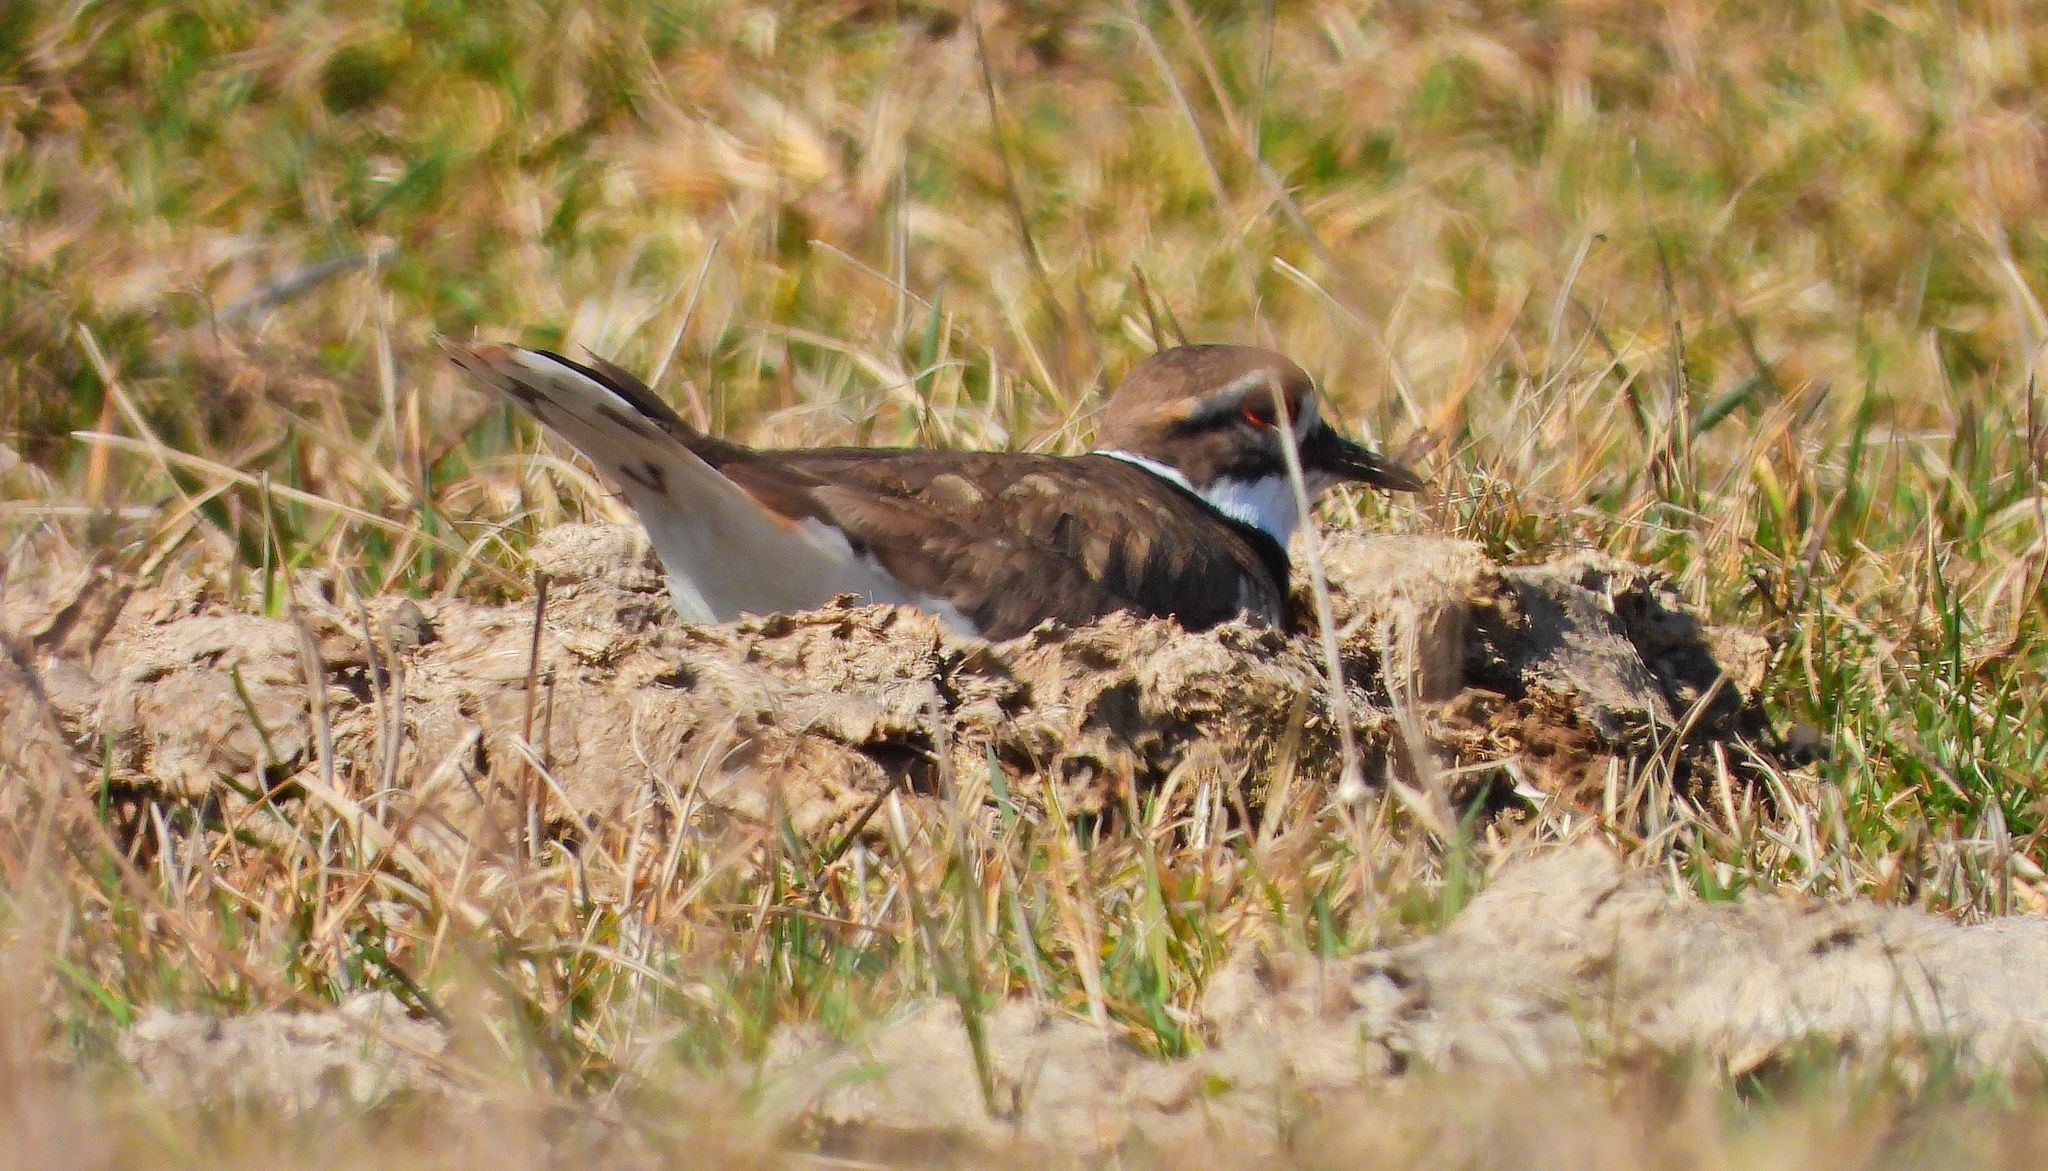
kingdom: Animalia
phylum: Chordata
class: Aves
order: Charadriiformes
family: Charadriidae
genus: Charadrius
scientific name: Charadrius vociferus
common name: Killdeer
